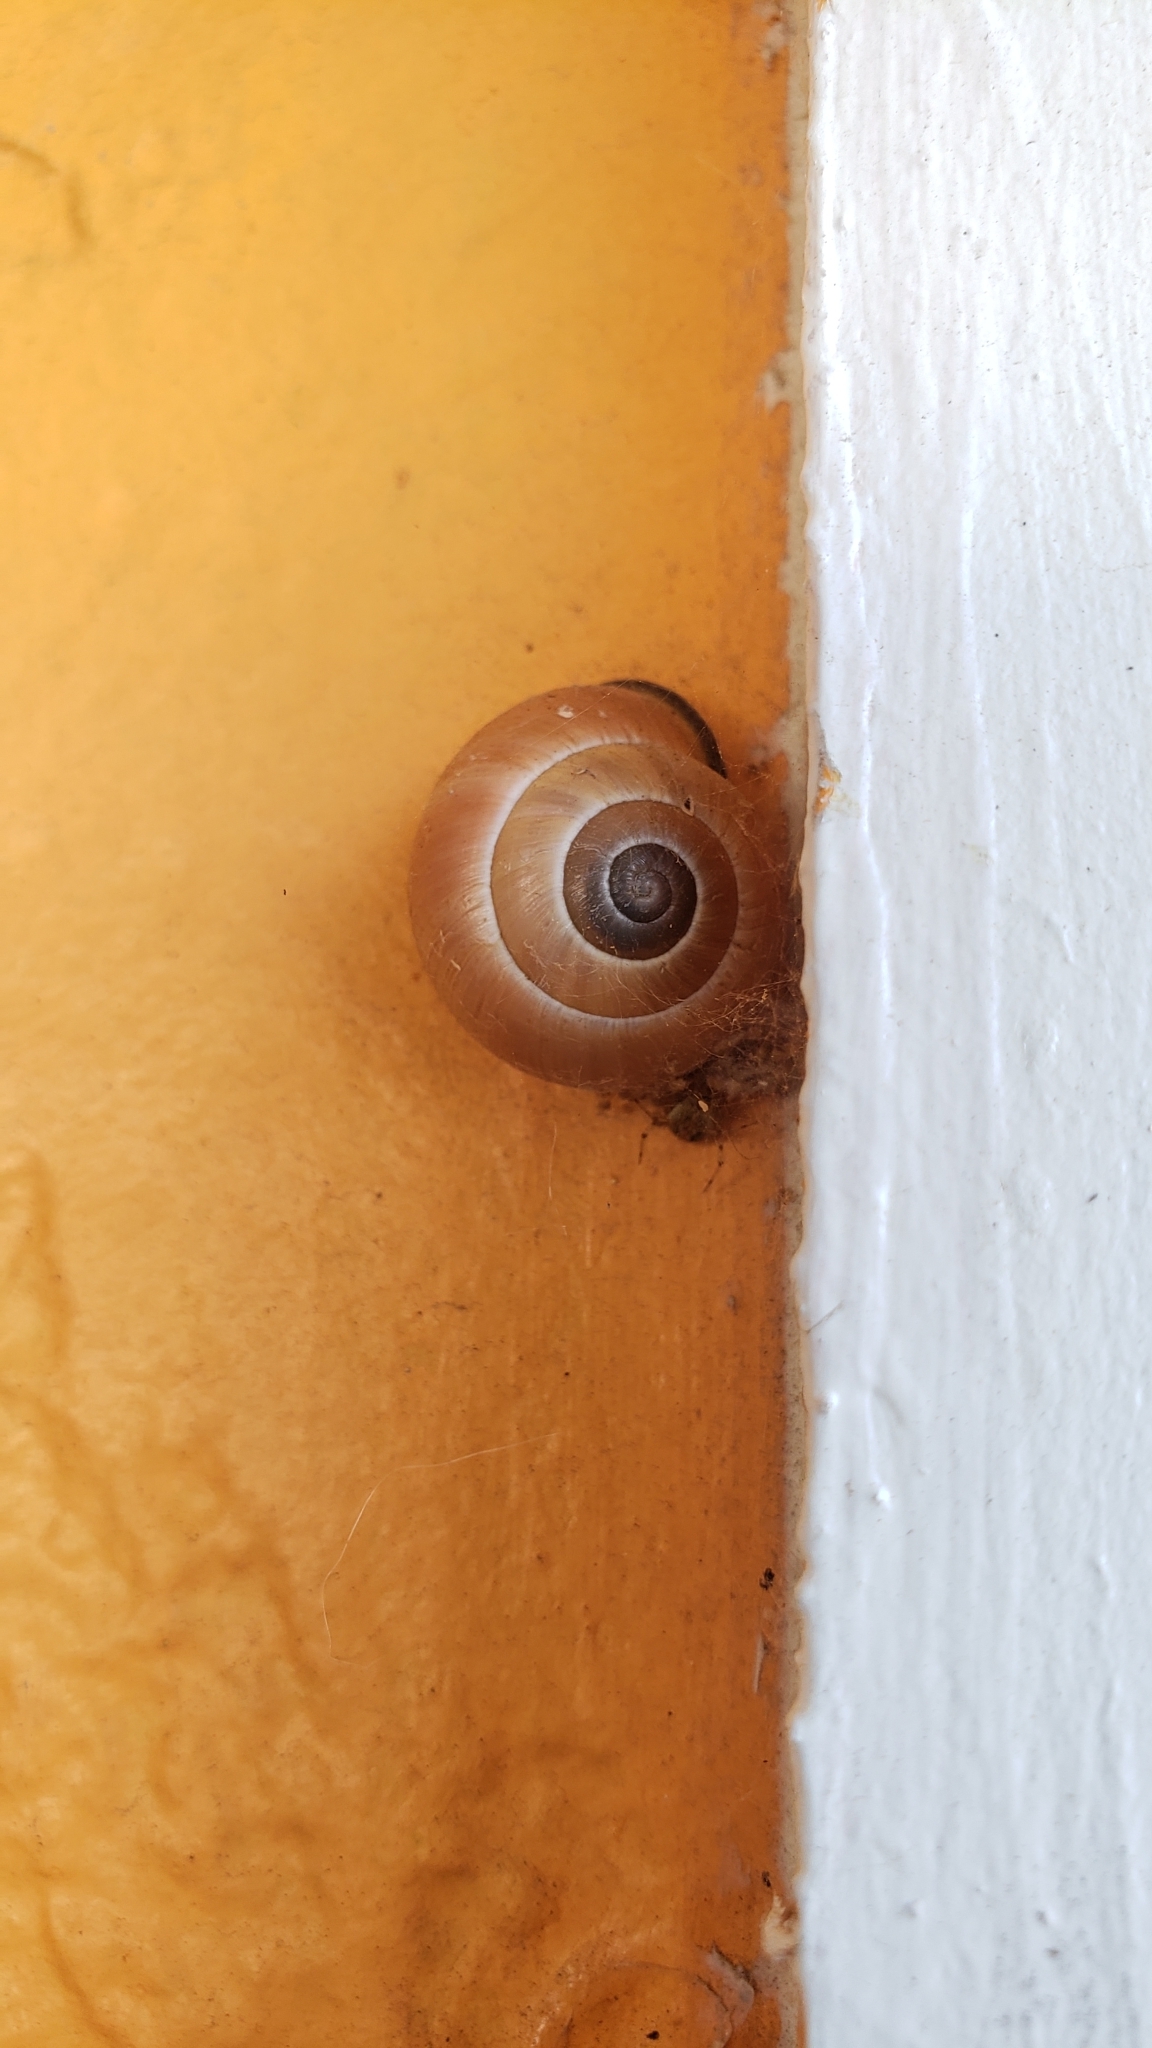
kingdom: Animalia
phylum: Mollusca
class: Gastropoda
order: Stylommatophora
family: Helicidae
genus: Cepaea
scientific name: Cepaea nemoralis
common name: Grovesnail
